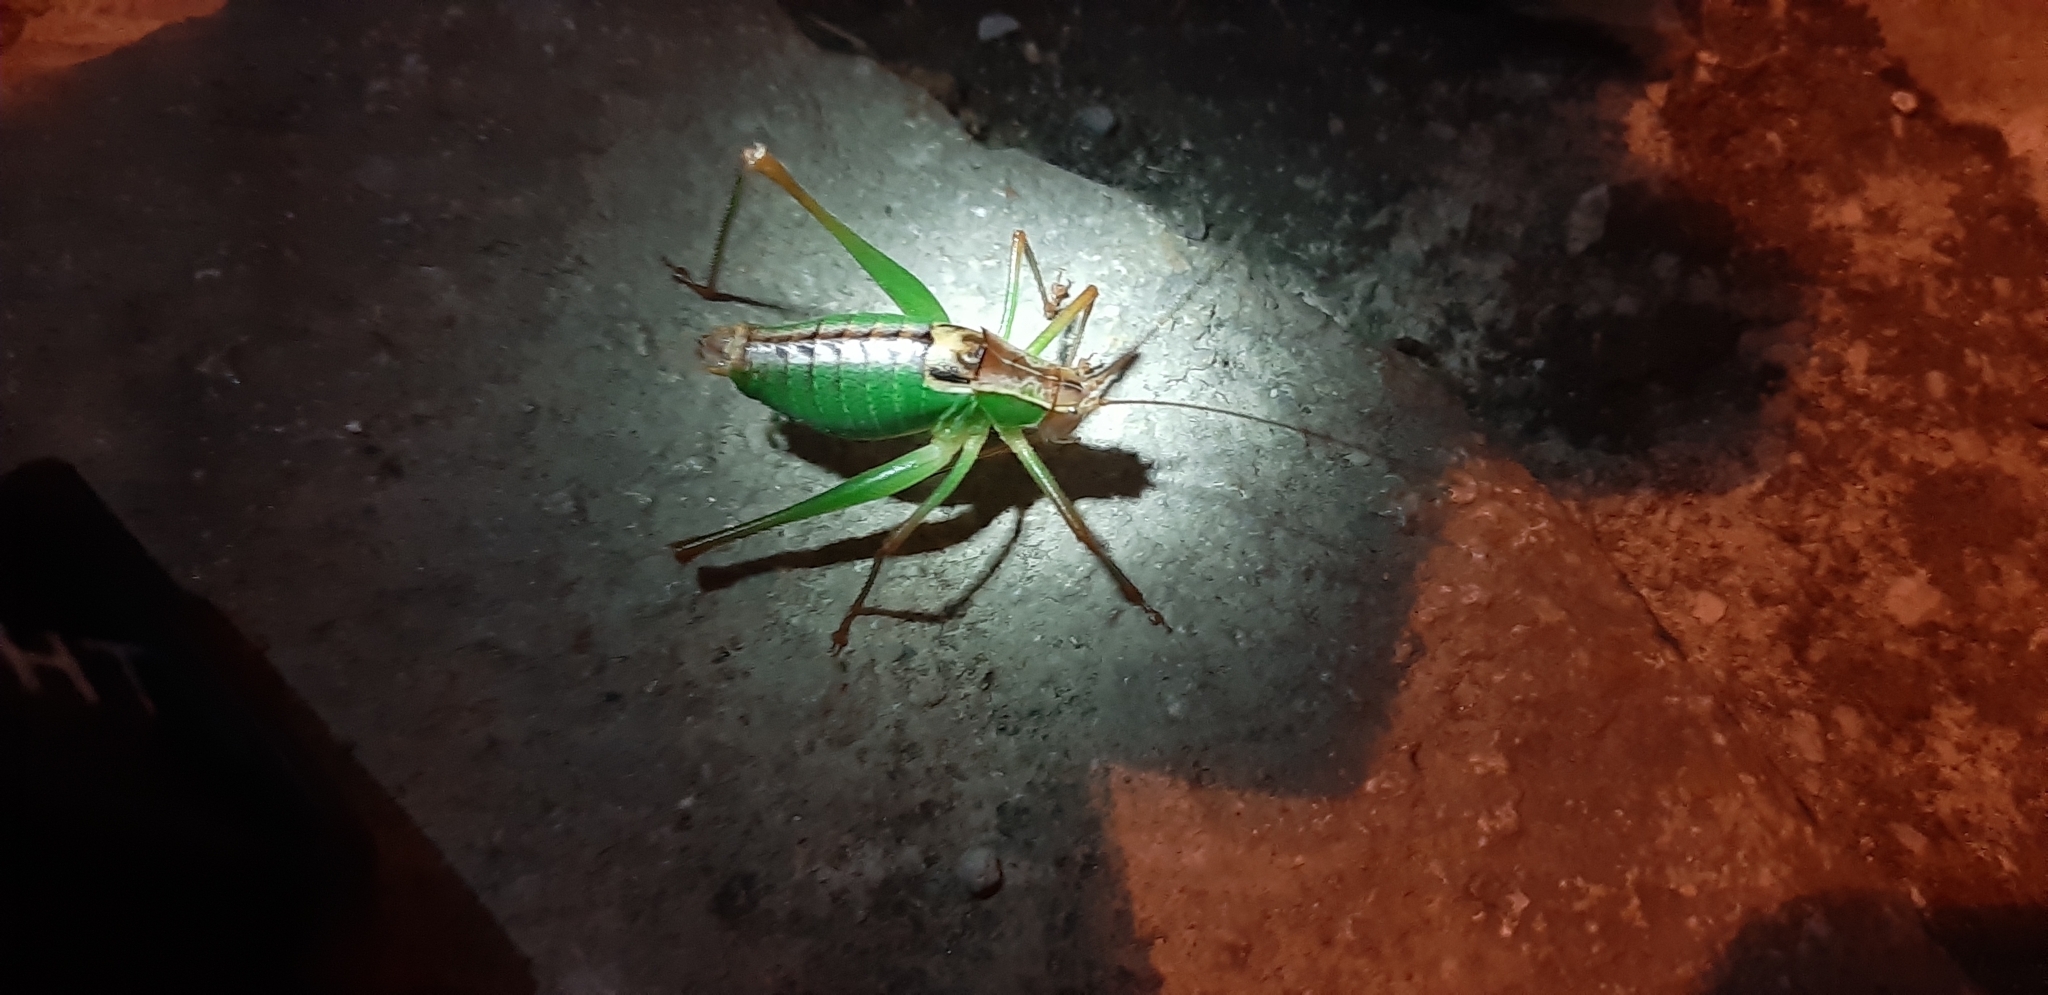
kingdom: Animalia
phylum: Arthropoda
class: Insecta
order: Orthoptera
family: Tettigoniidae
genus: Metaplastes
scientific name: Metaplastes pulchripennis
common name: Italian ornate bush-cricket
